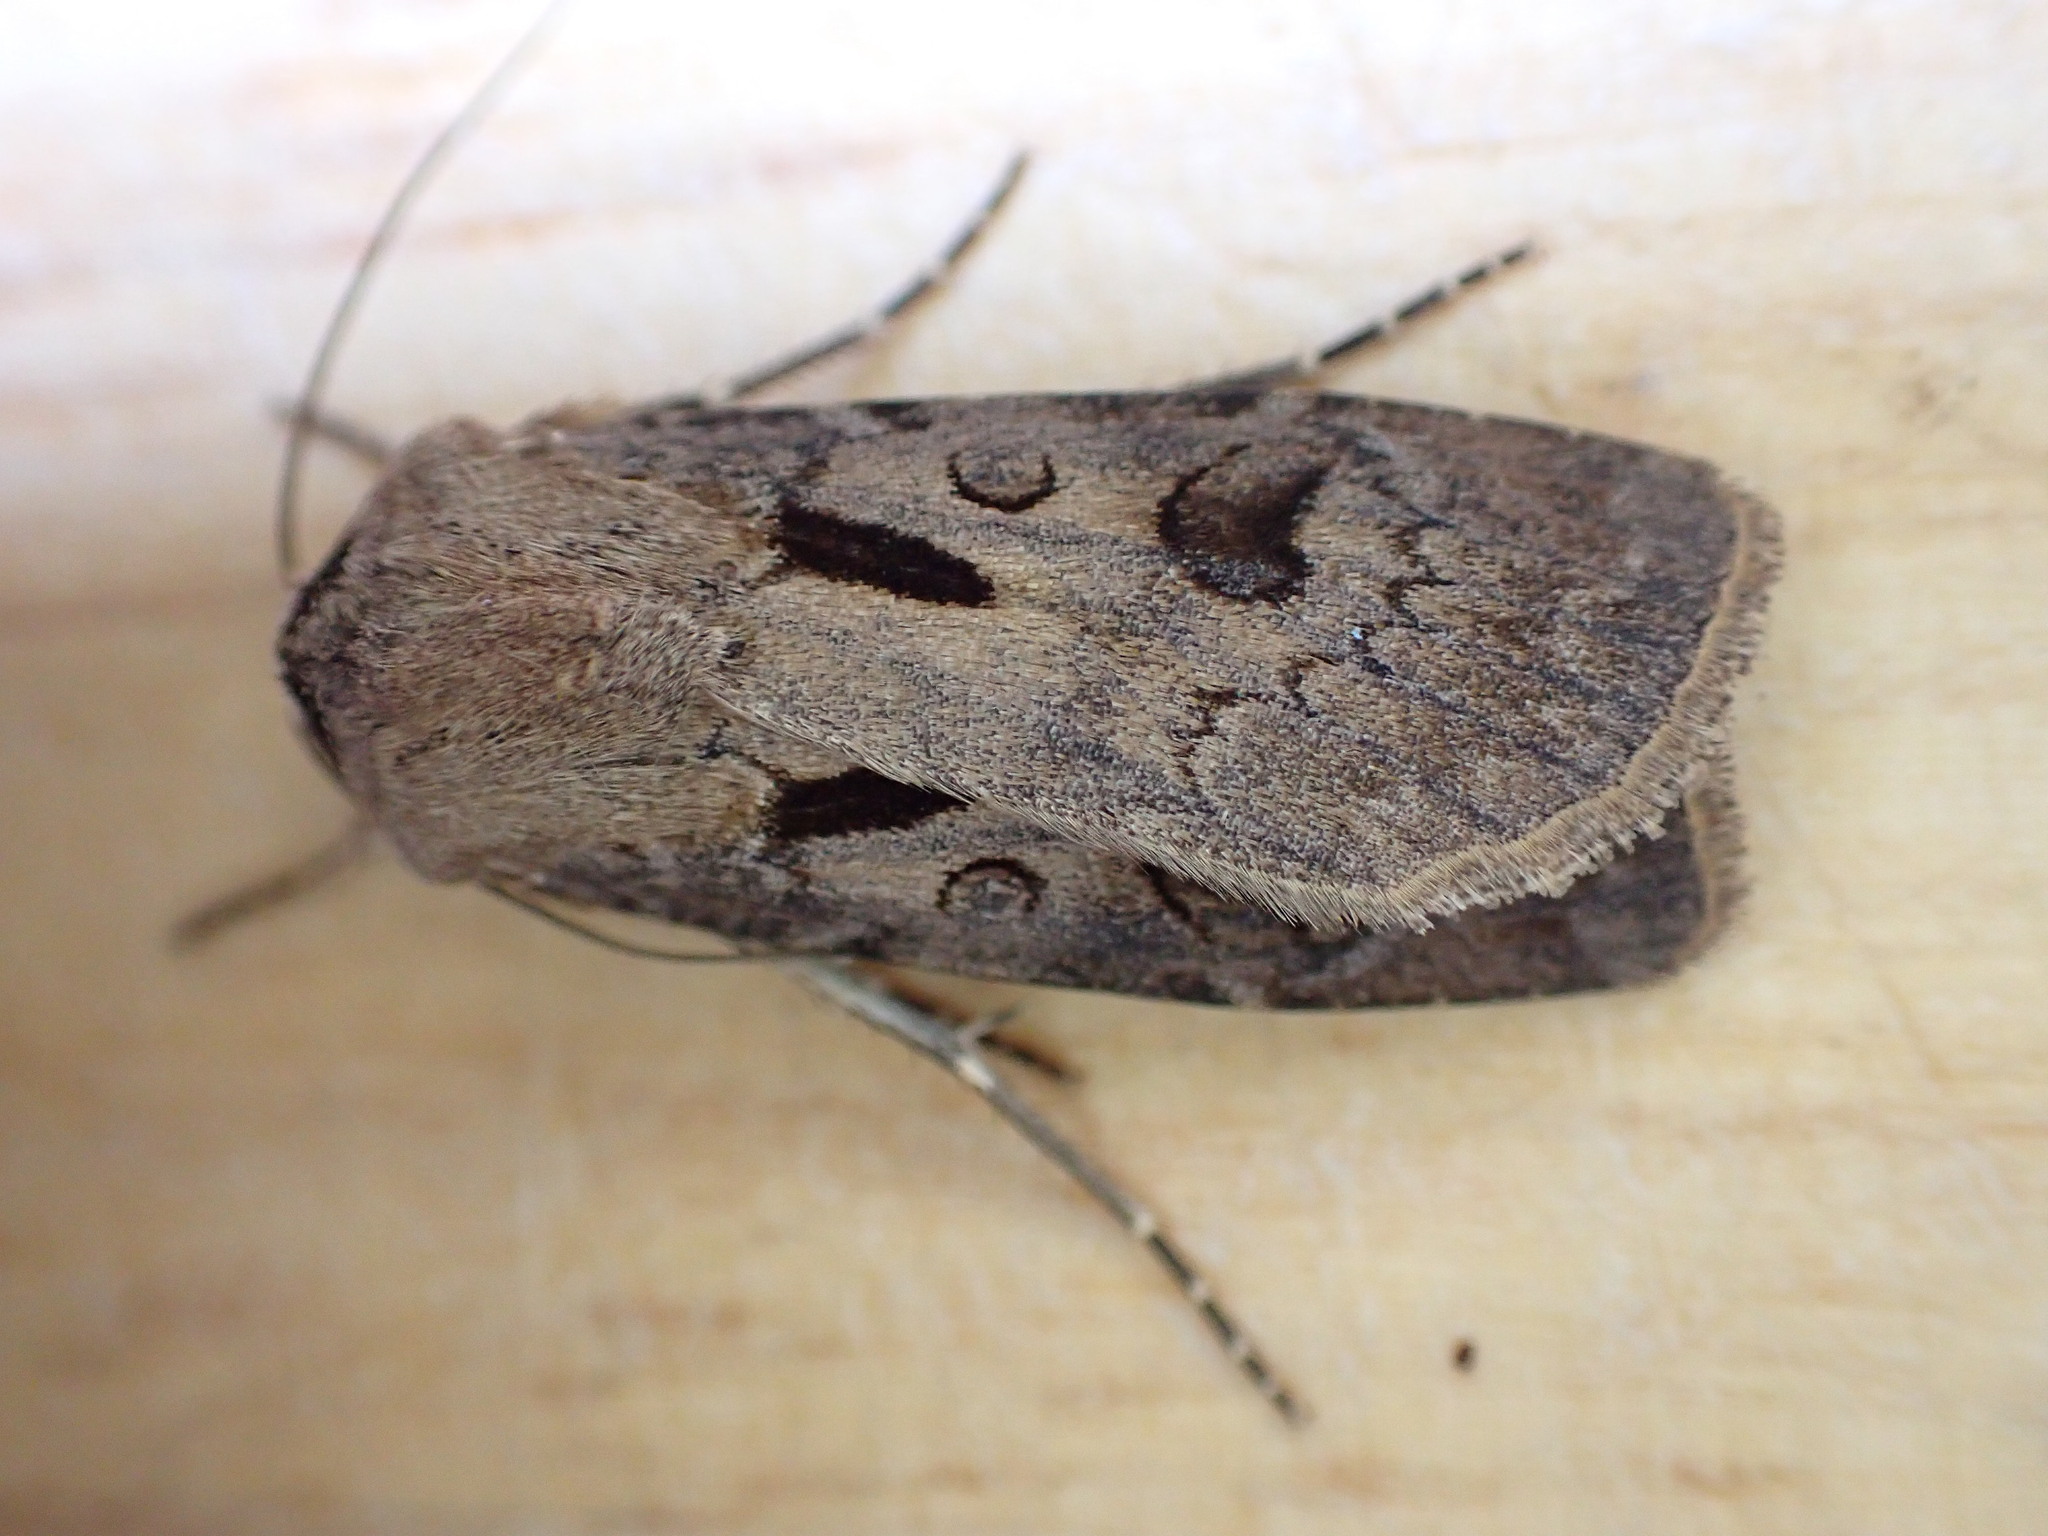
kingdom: Animalia
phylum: Arthropoda
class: Insecta
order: Lepidoptera
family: Noctuidae
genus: Agrotis
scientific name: Agrotis exclamationis
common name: Heart and dart
